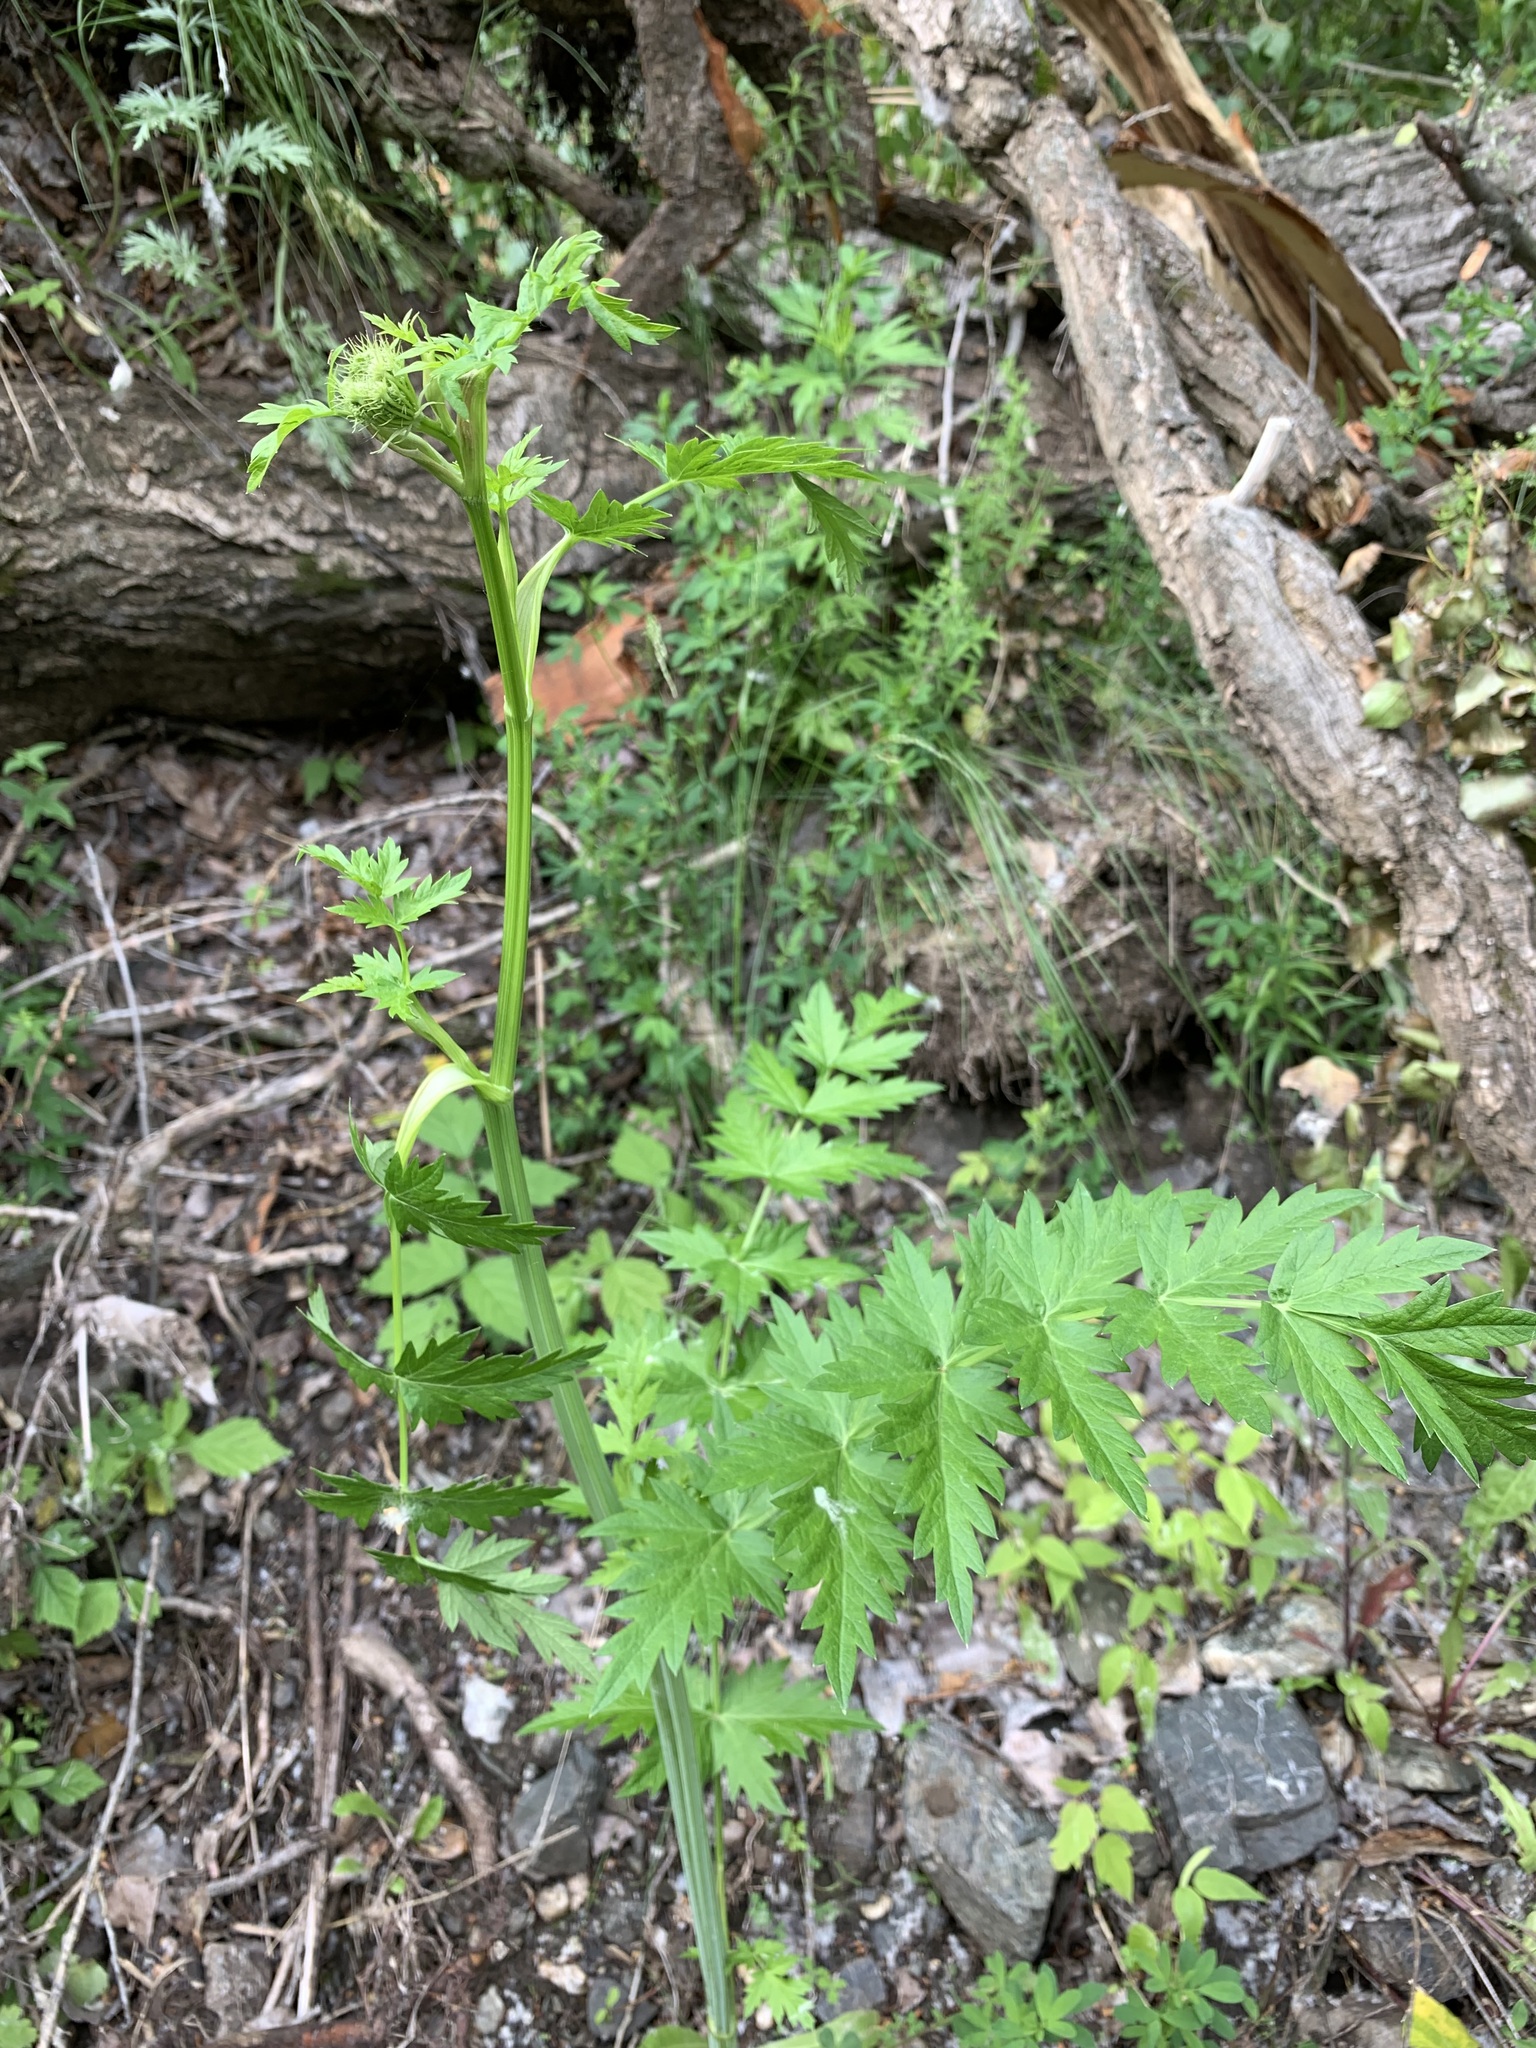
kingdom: Plantae
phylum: Tracheophyta
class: Magnoliopsida
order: Apiales
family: Apiaceae
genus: Seseli
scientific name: Seseli libanotis
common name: Mooncarrot
